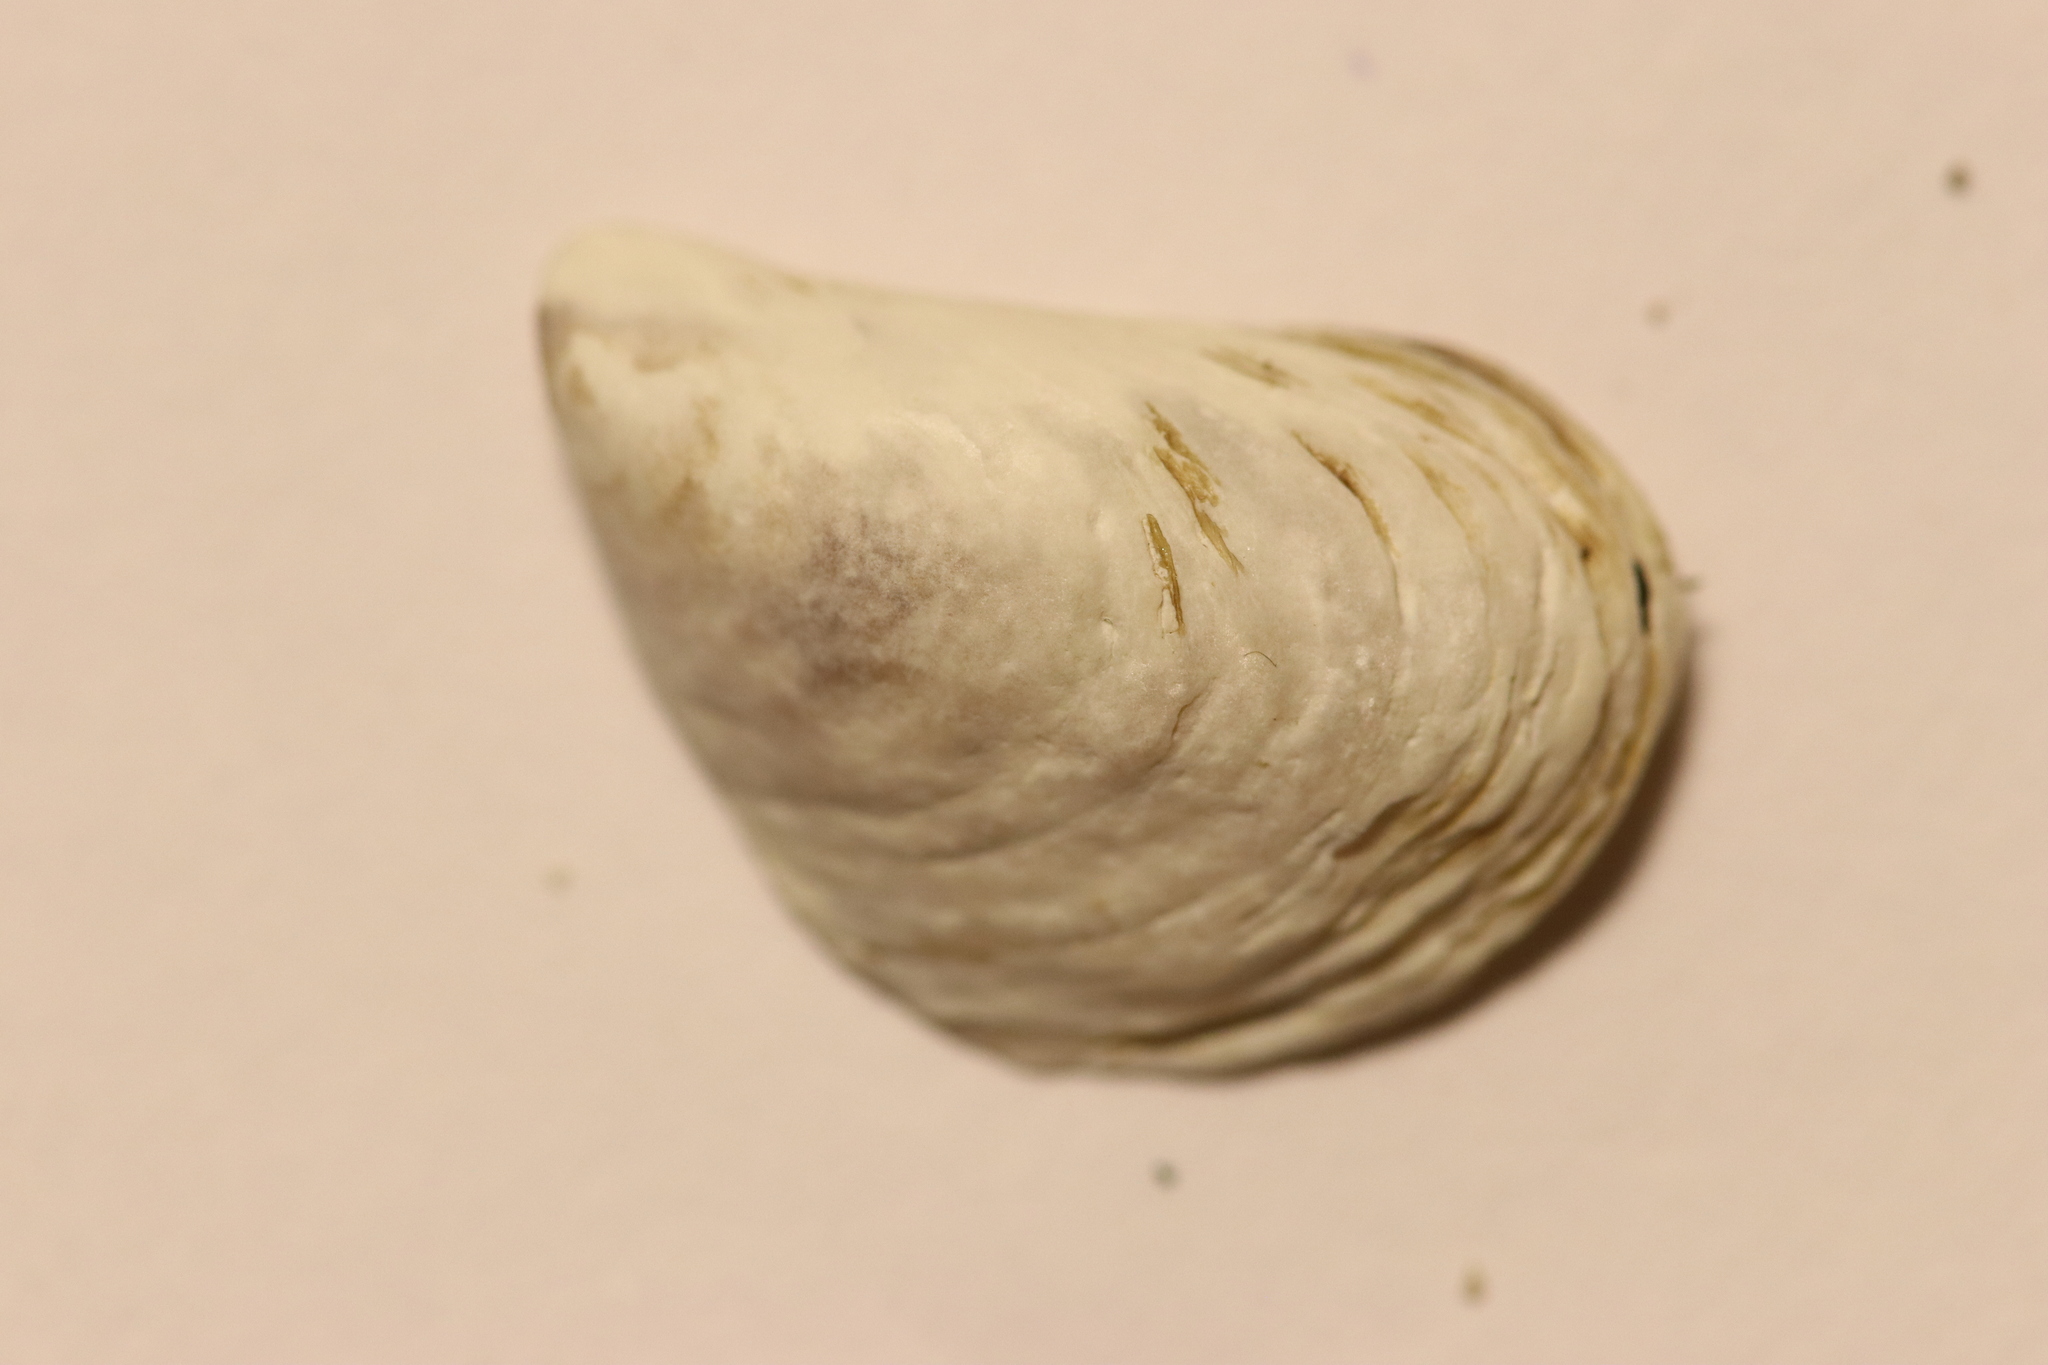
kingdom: Animalia
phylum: Mollusca
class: Bivalvia
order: Myida
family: Dreissenidae
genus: Dreissena
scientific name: Dreissena bugensis
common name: Quagga mussel
